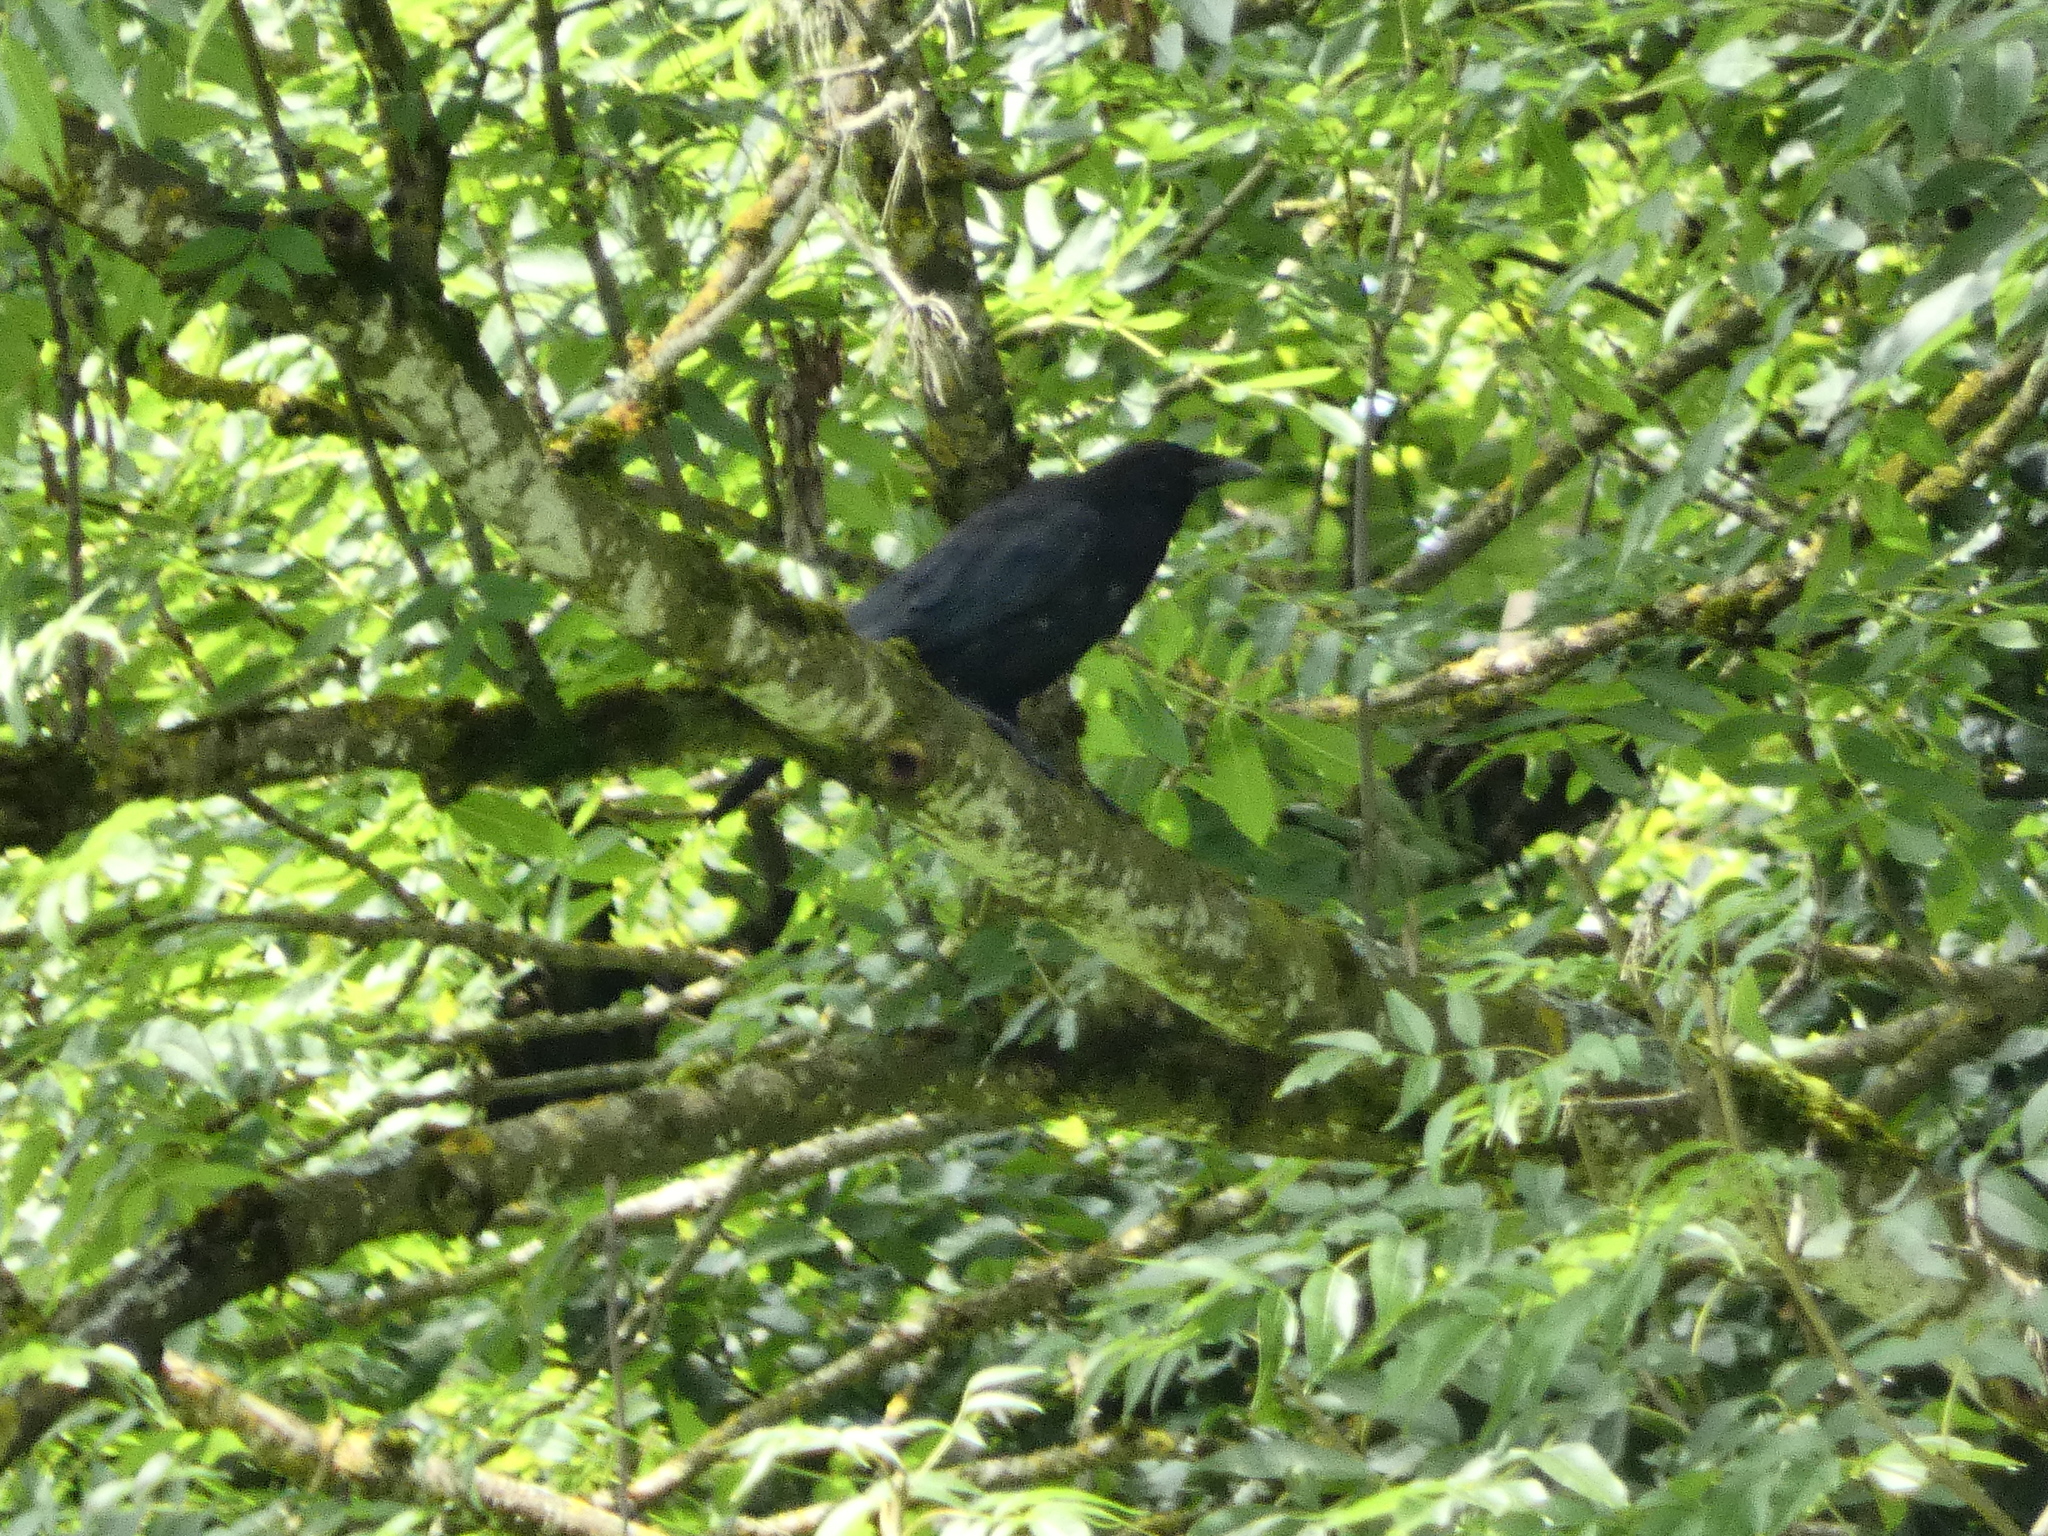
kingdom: Animalia
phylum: Chordata
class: Aves
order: Passeriformes
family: Corvidae
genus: Corvus
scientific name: Corvus corone
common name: Carrion crow
